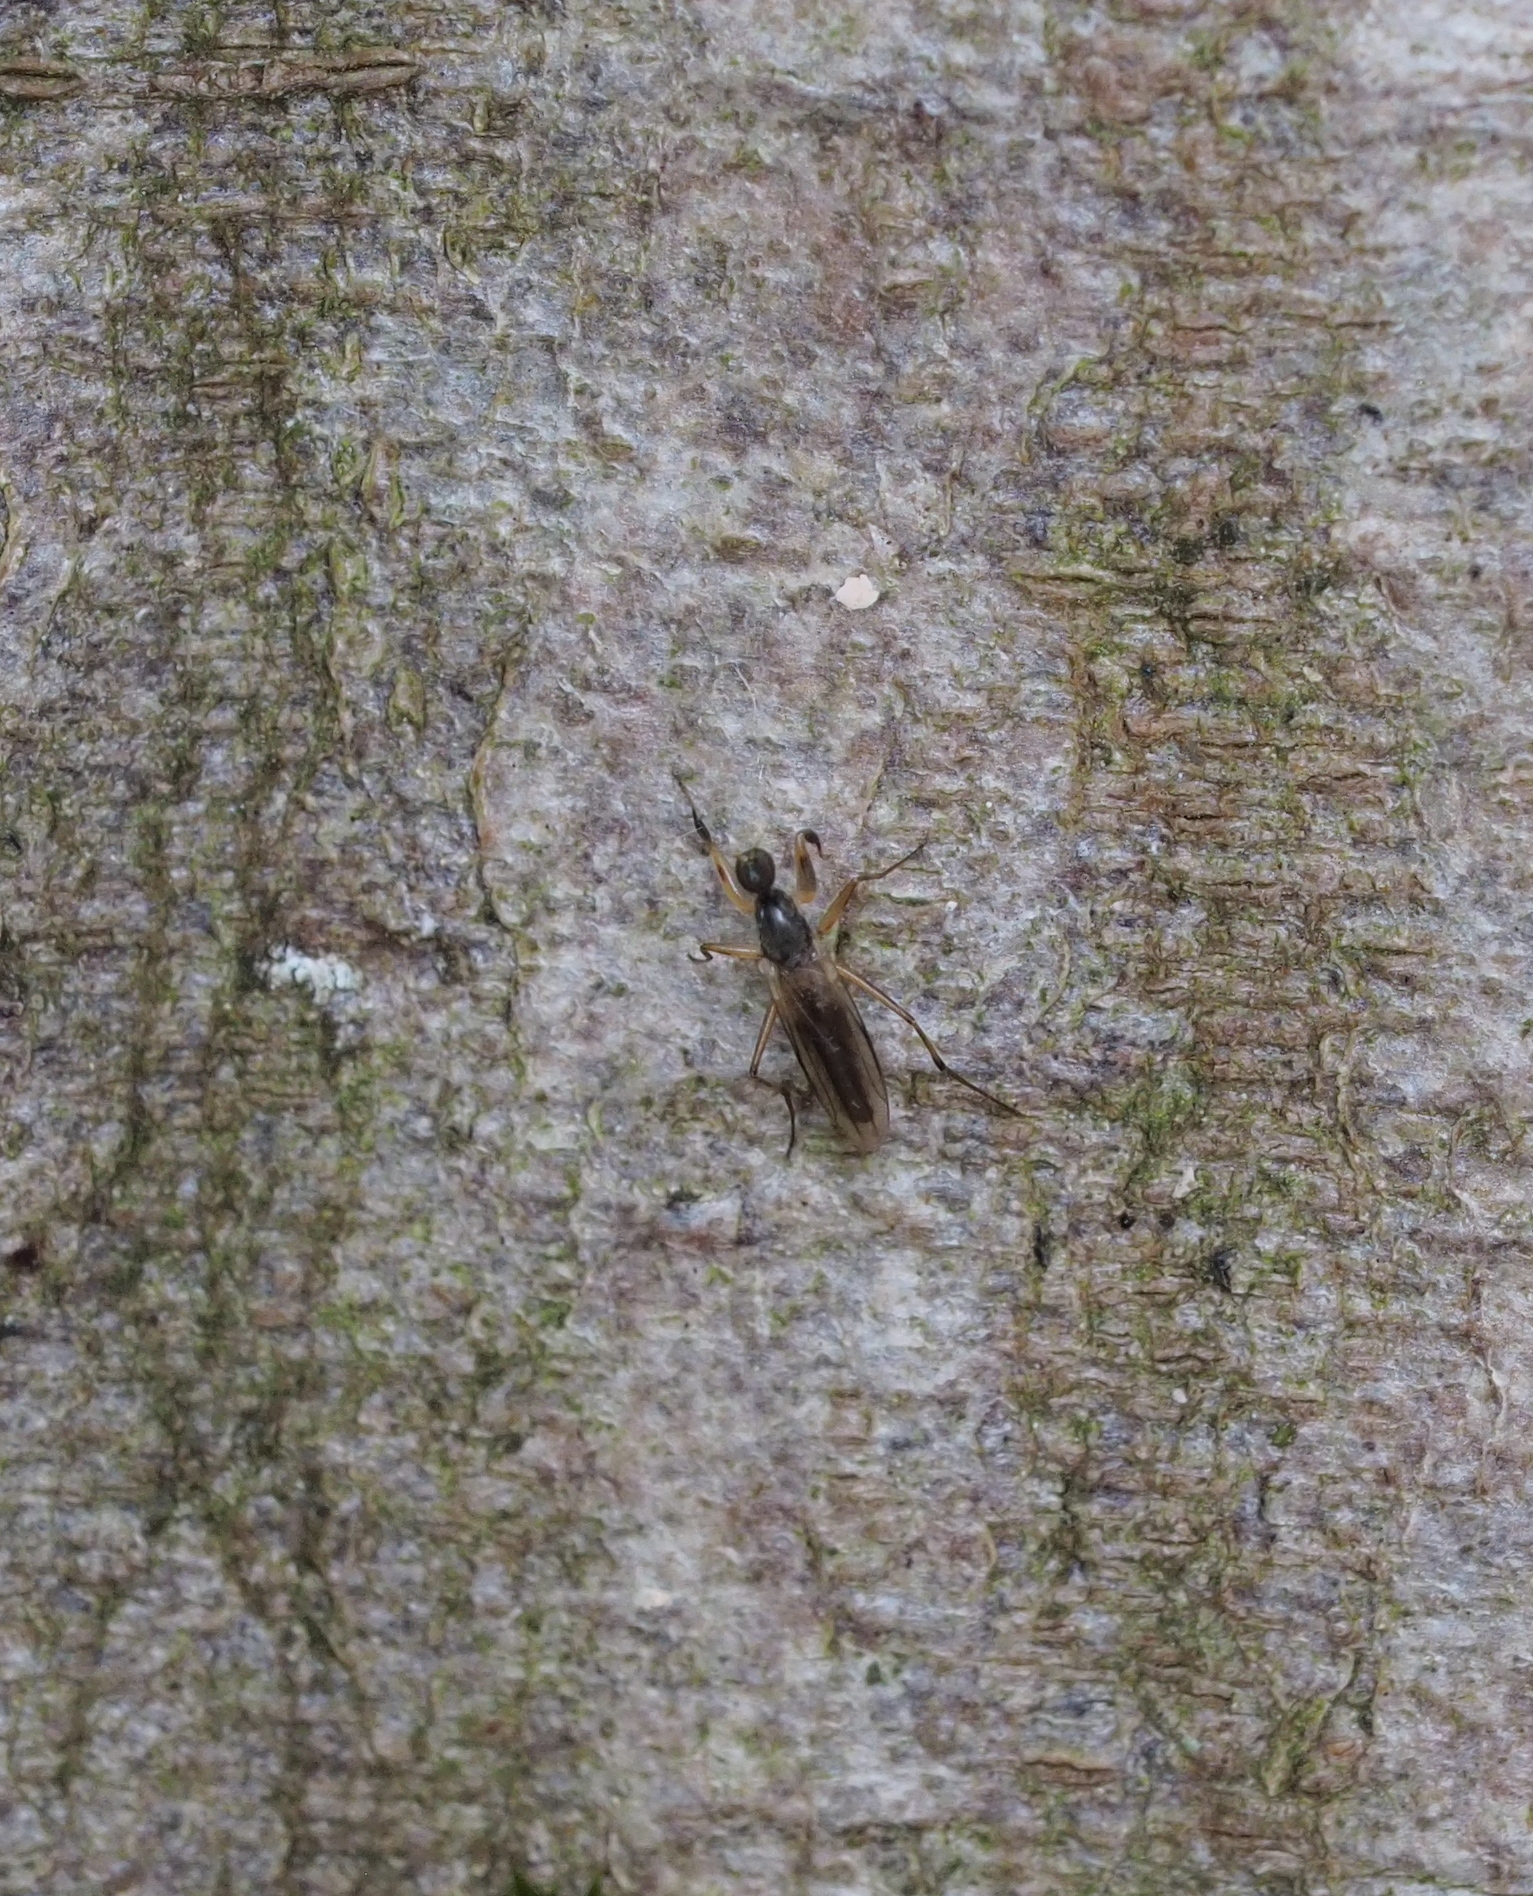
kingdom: Animalia
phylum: Arthropoda
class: Insecta
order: Diptera
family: Hybotidae
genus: Tachypeza
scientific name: Tachypeza nubila
